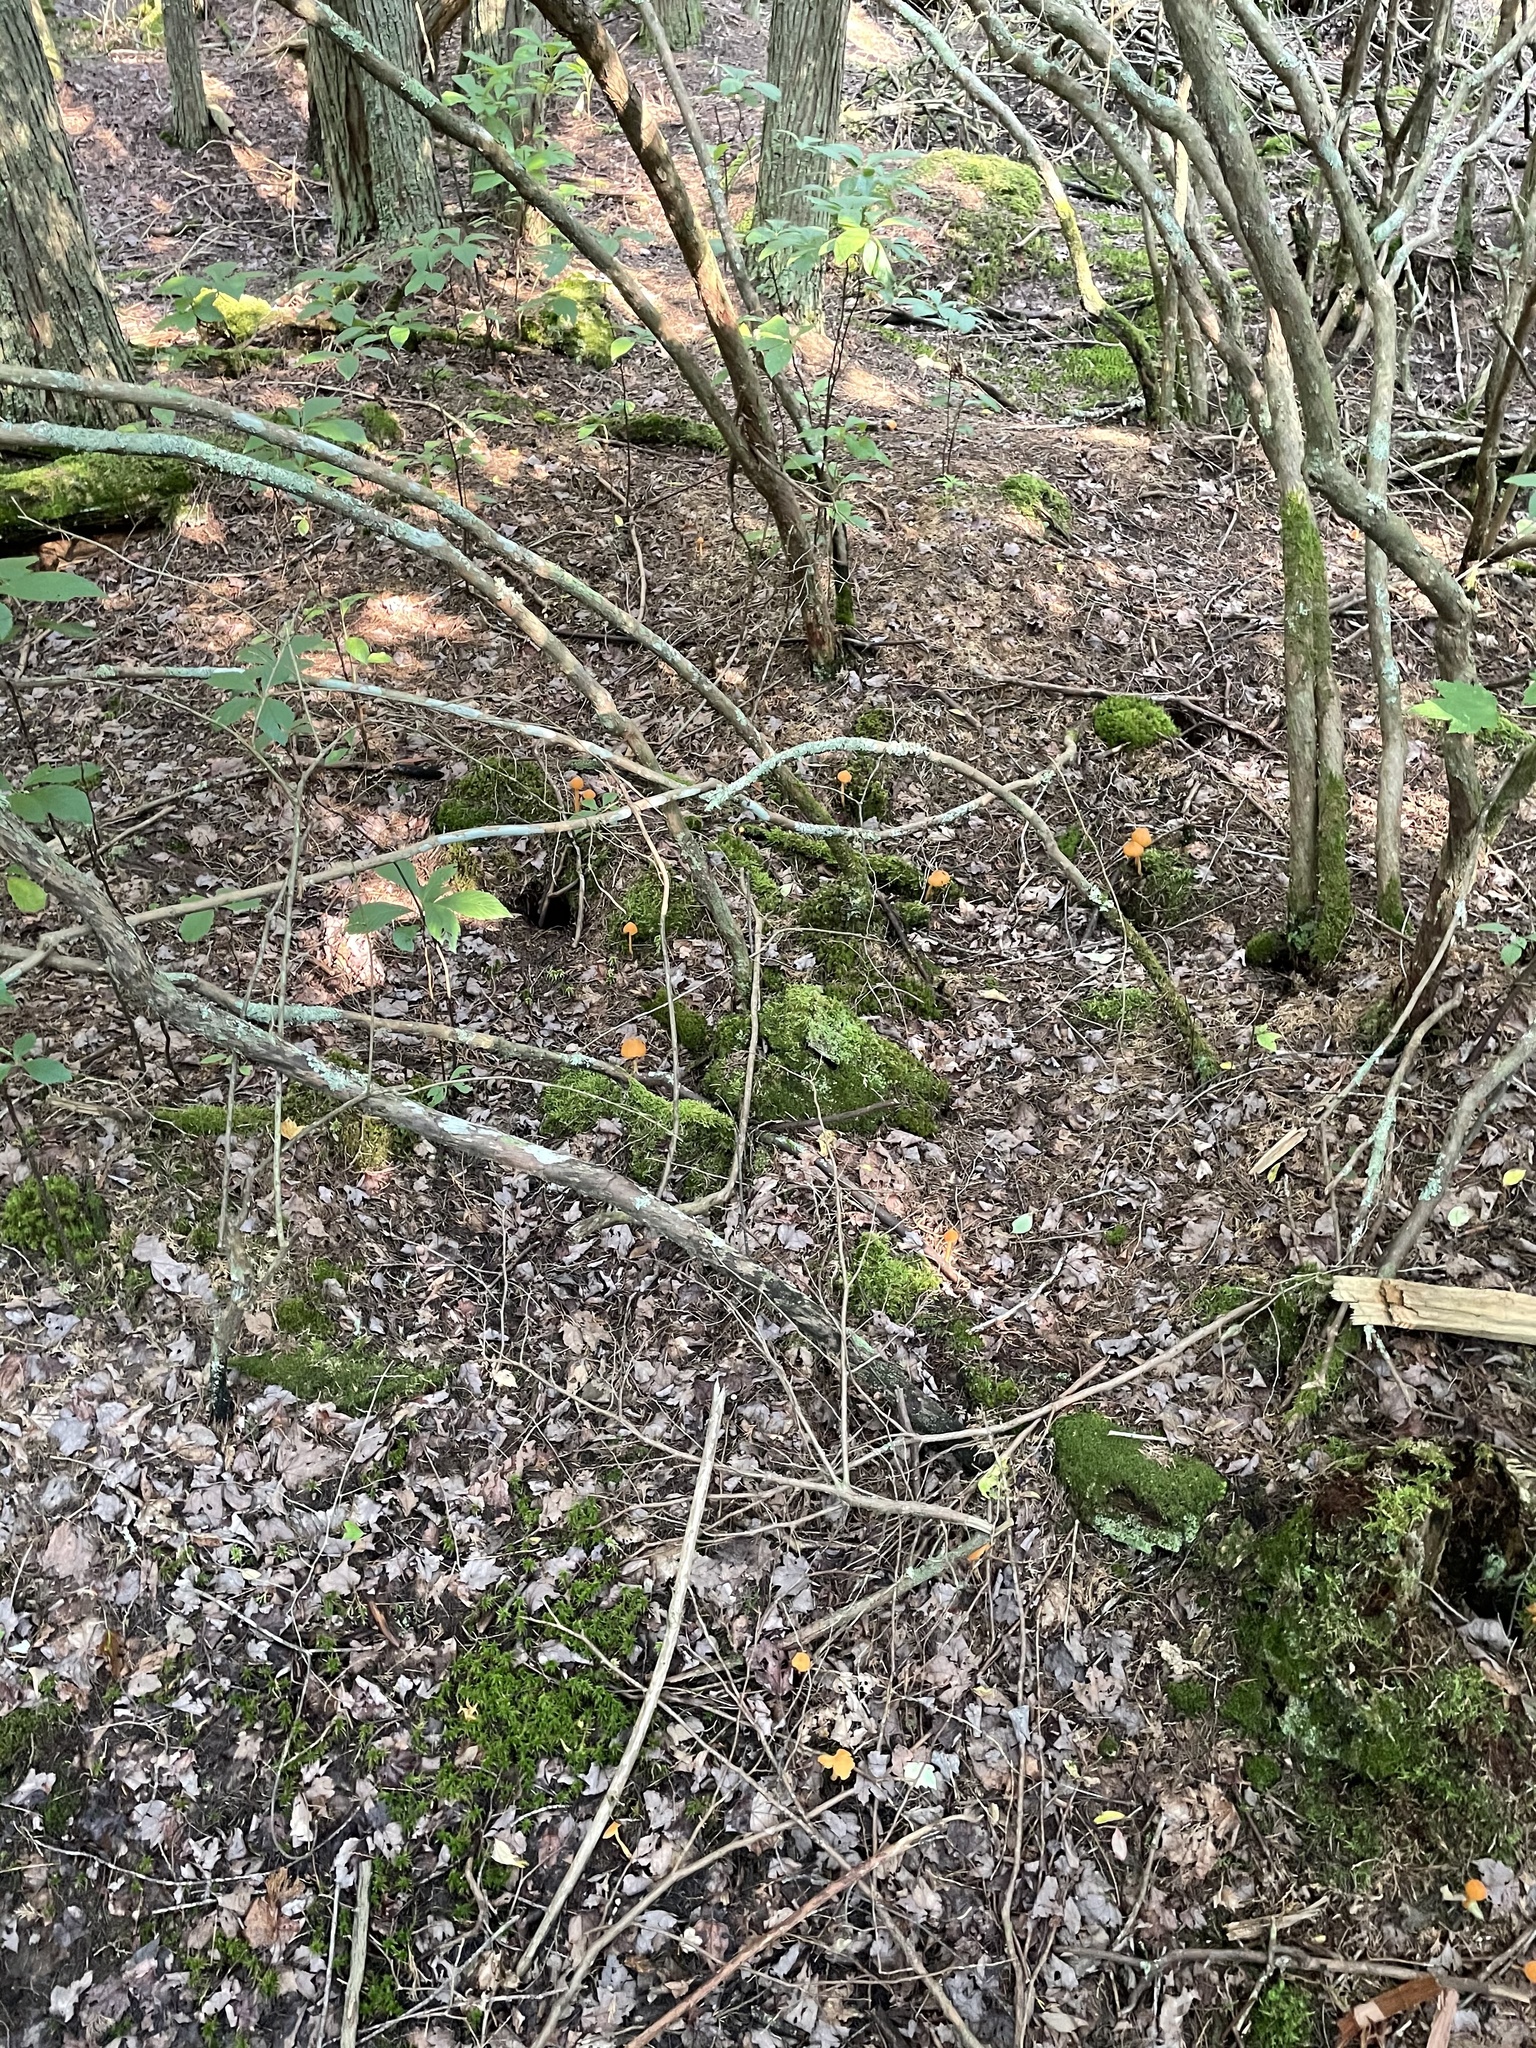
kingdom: Fungi
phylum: Basidiomycota
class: Agaricomycetes
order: Agaricales
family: Entolomataceae
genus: Entoloma
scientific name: Entoloma quadratum
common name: Salmon pinkgill
